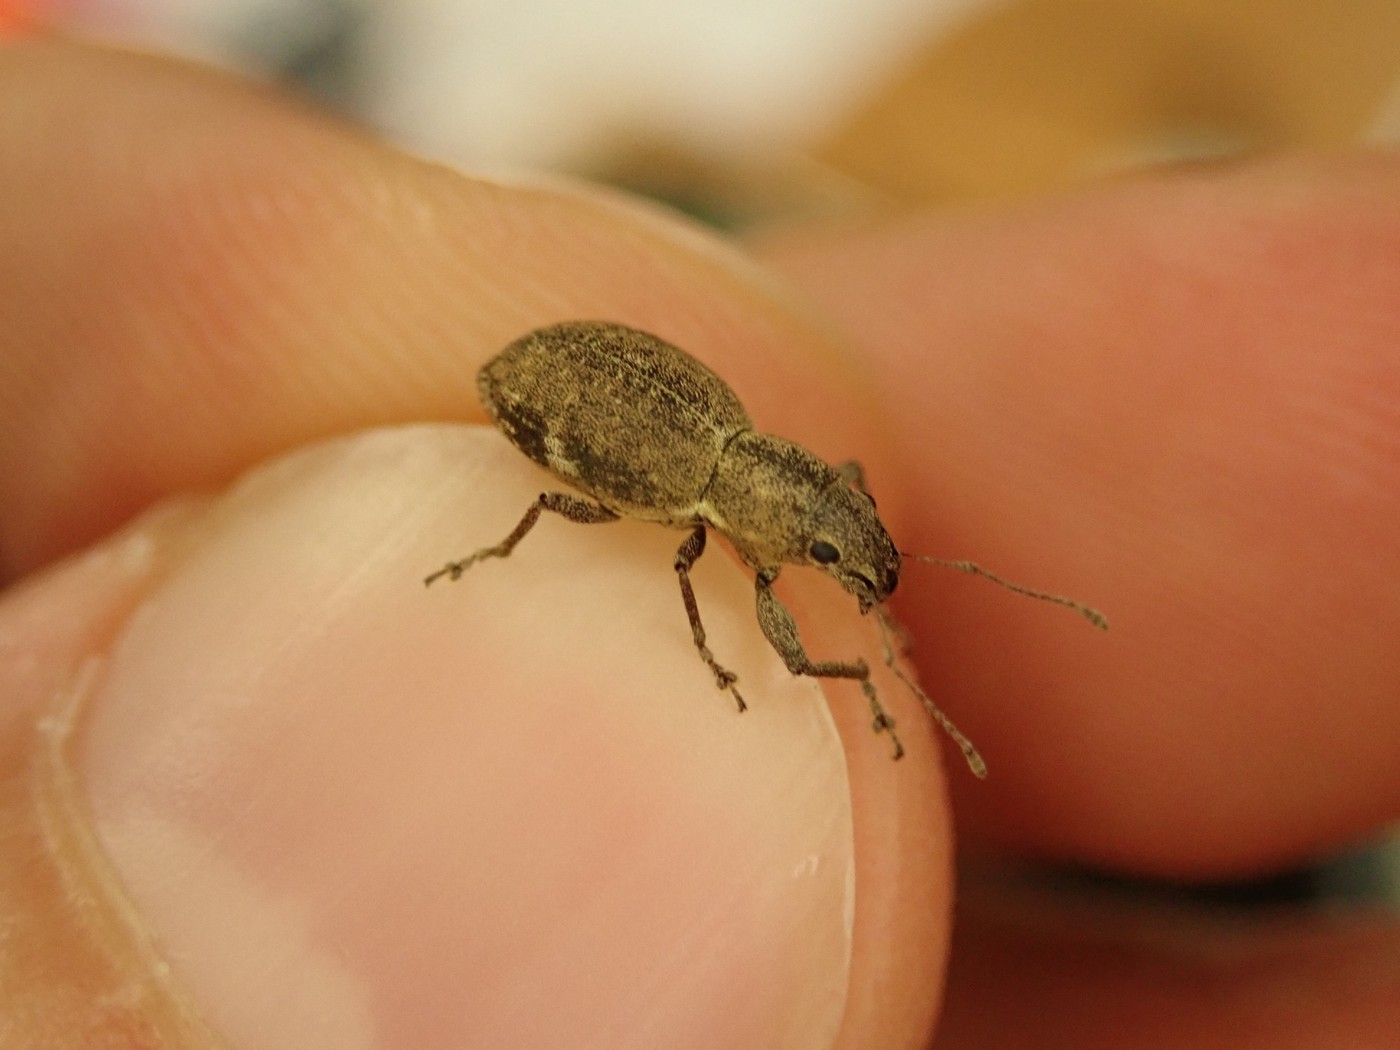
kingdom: Animalia
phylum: Arthropoda
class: Insecta
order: Coleoptera
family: Curculionidae
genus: Naupactus
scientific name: Naupactus cervinus
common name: Fuller rose beetle
